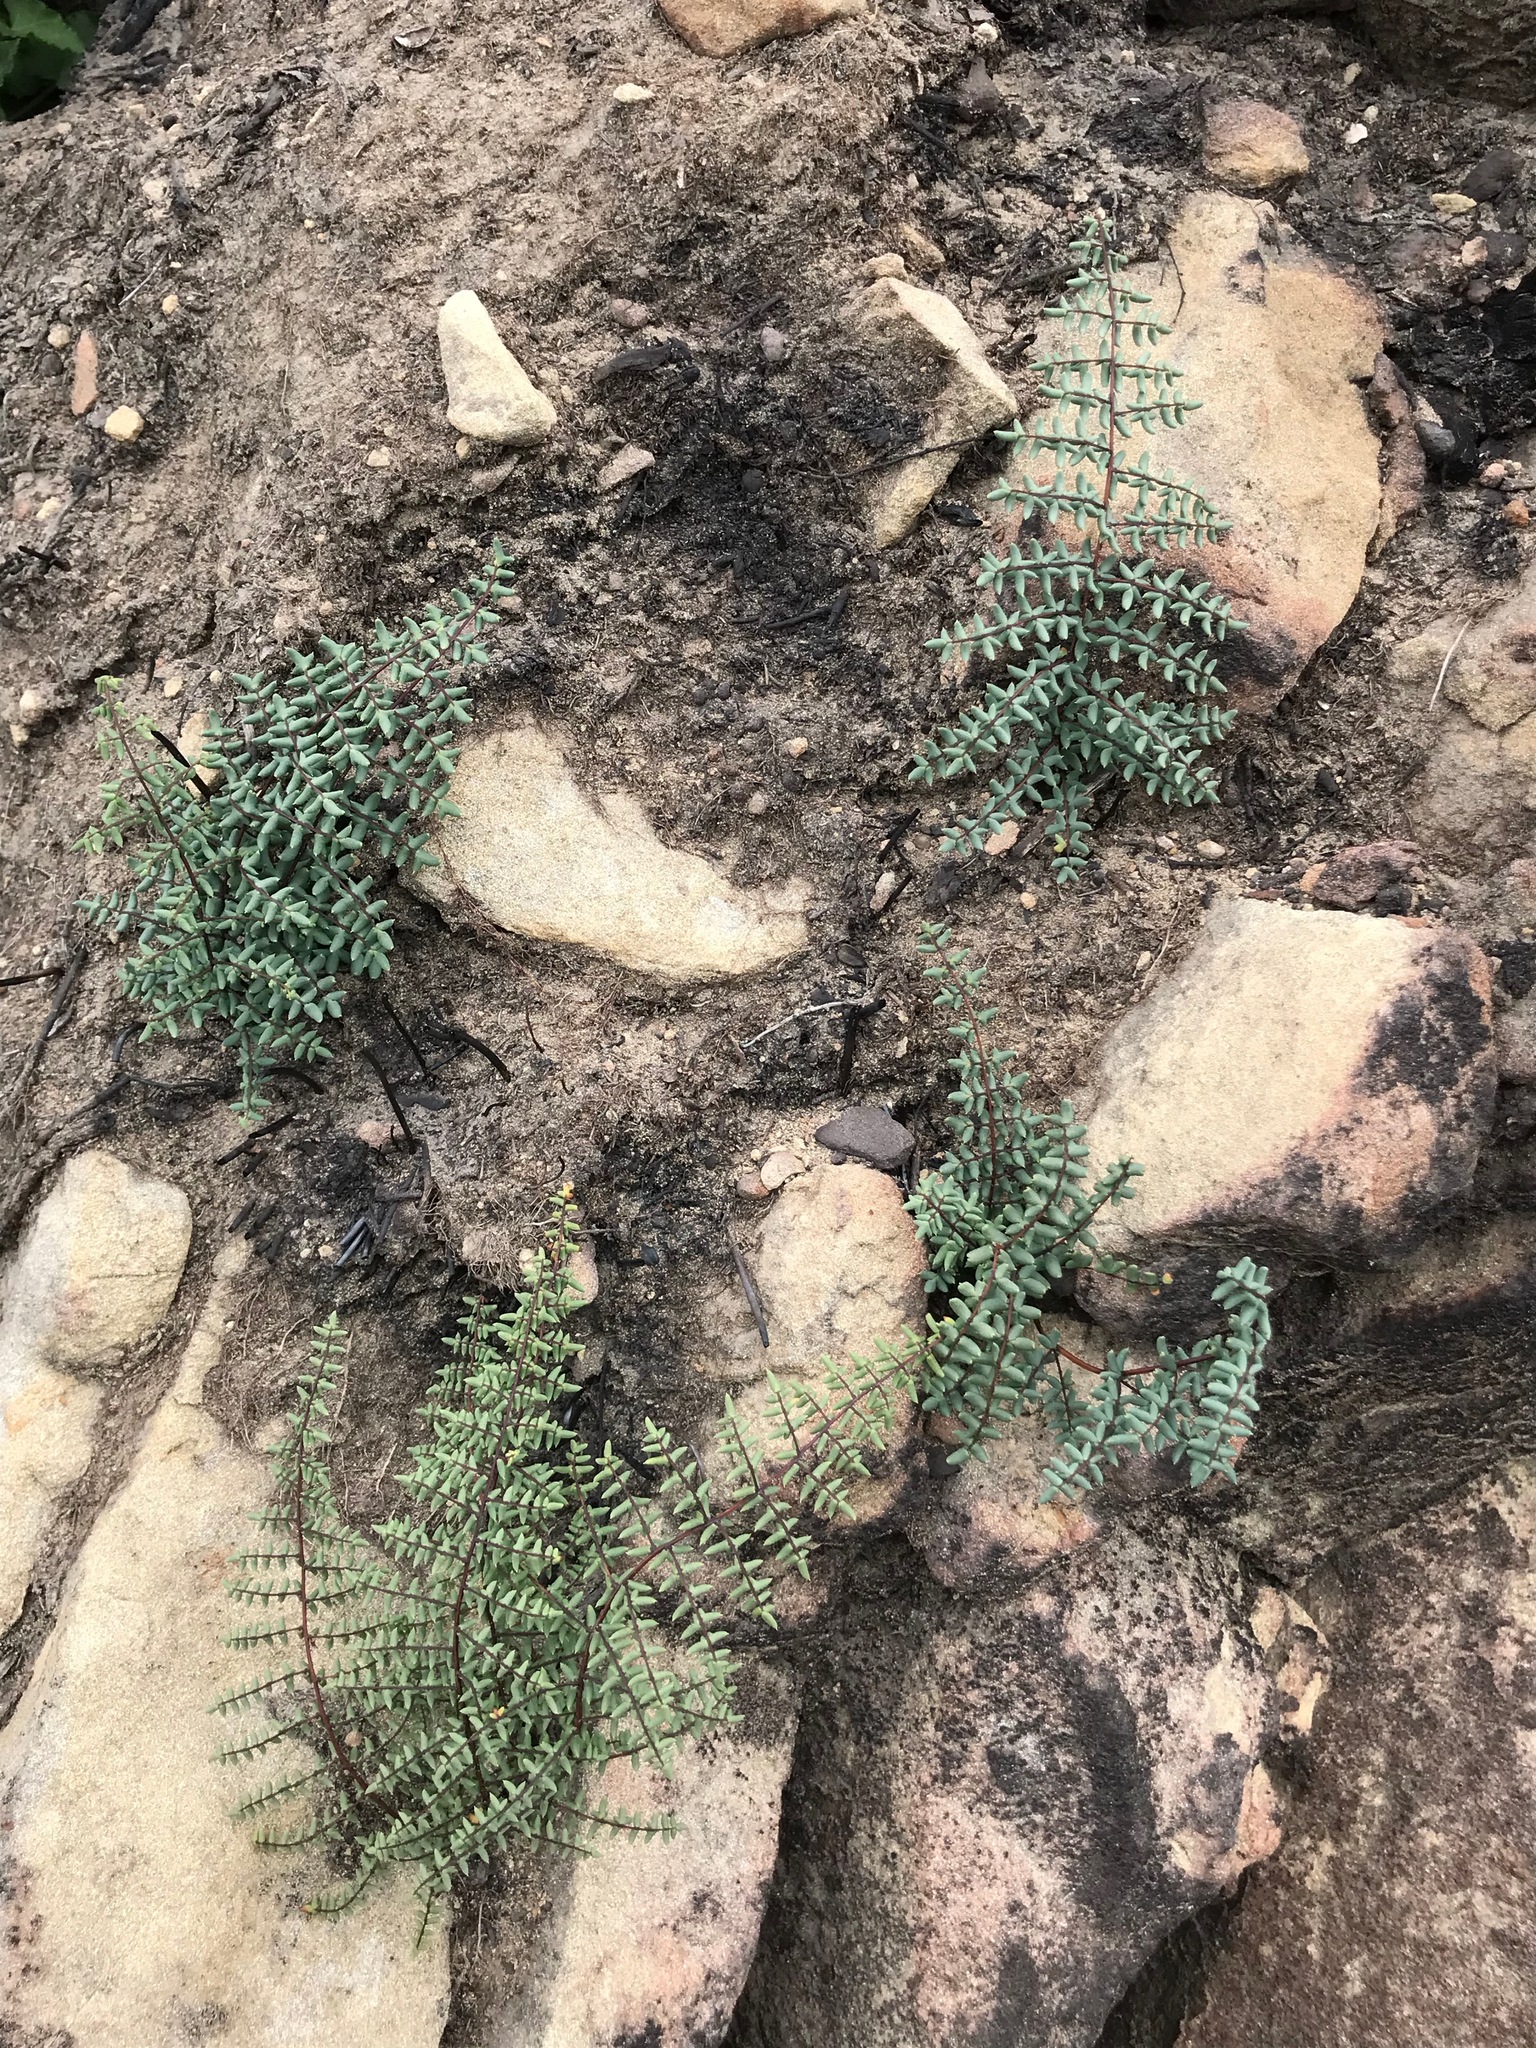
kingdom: Plantae
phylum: Tracheophyta
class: Polypodiopsida
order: Polypodiales
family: Pteridaceae
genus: Pellaea
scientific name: Pellaea mucronata
